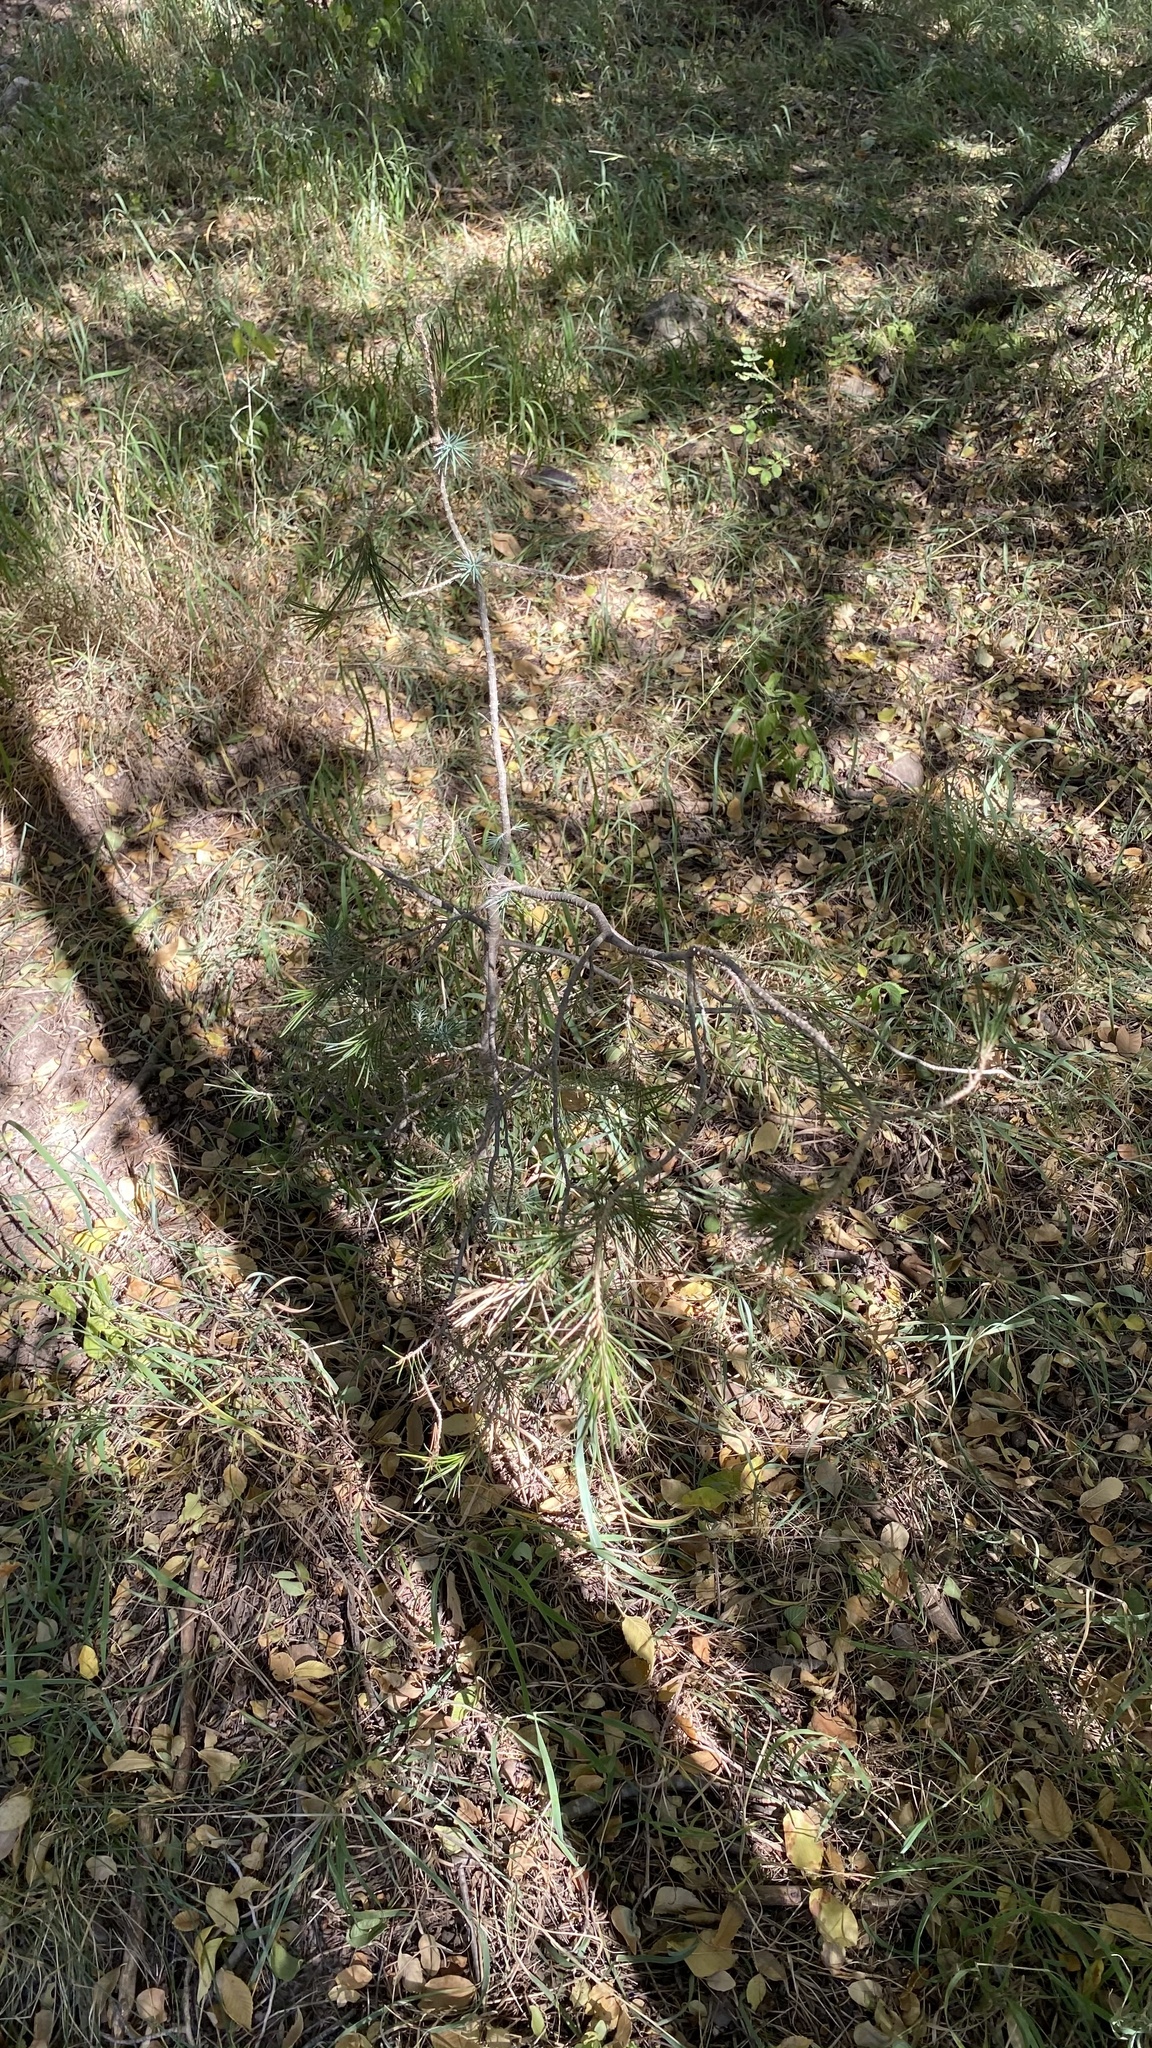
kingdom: Plantae
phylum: Tracheophyta
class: Pinopsida
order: Pinales
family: Pinaceae
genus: Pinus
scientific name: Pinus strobiformis
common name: Southwestern white pine
